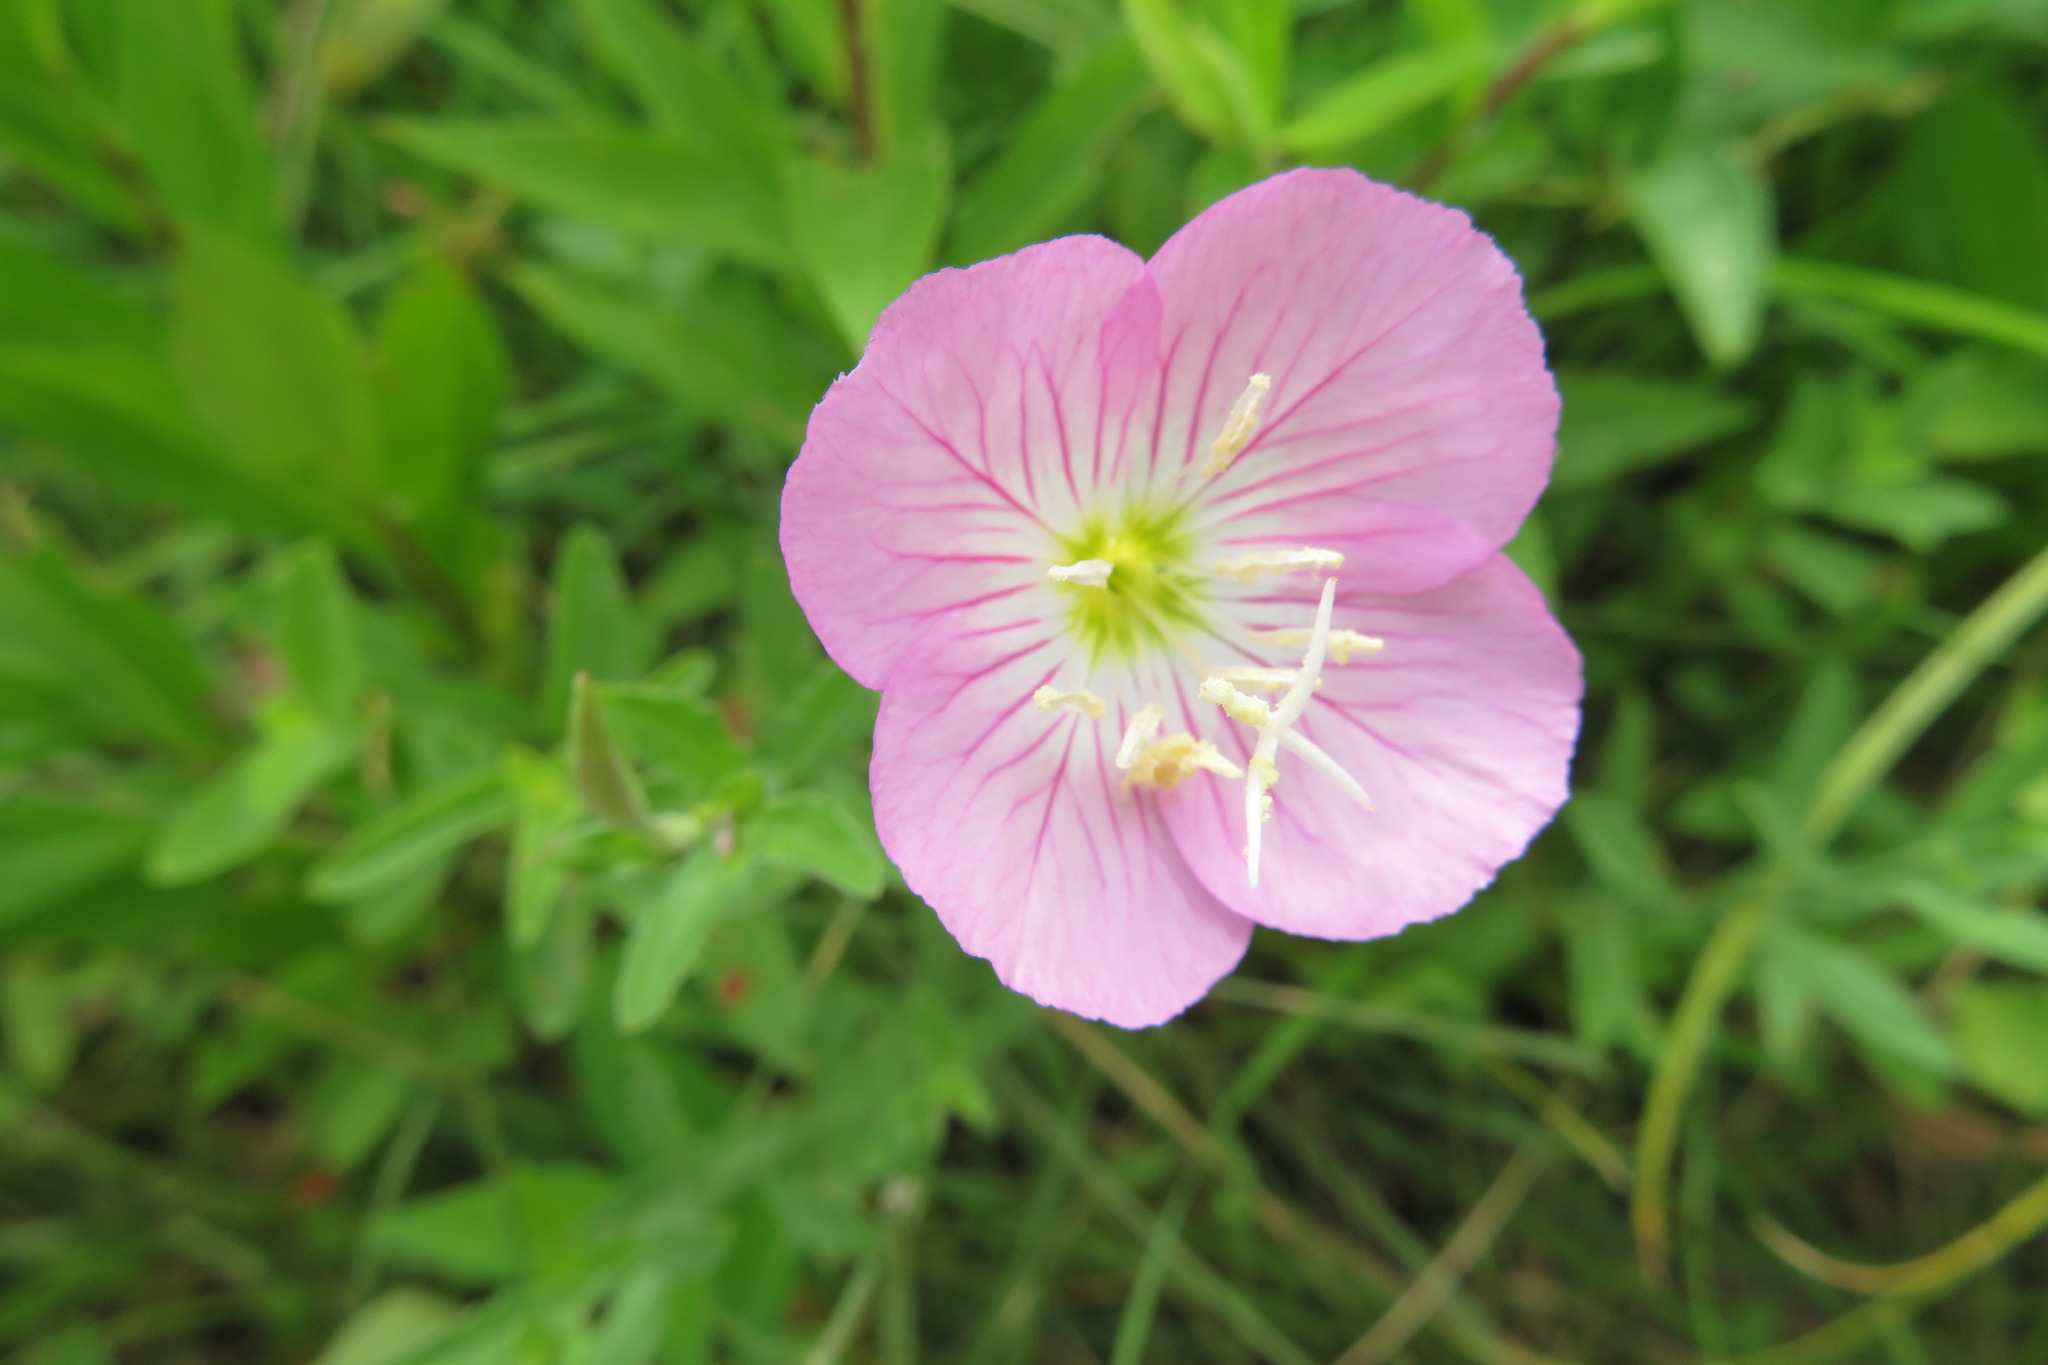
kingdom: Plantae
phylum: Tracheophyta
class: Magnoliopsida
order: Myrtales
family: Onagraceae
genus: Oenothera
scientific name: Oenothera speciosa
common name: White evening-primrose
